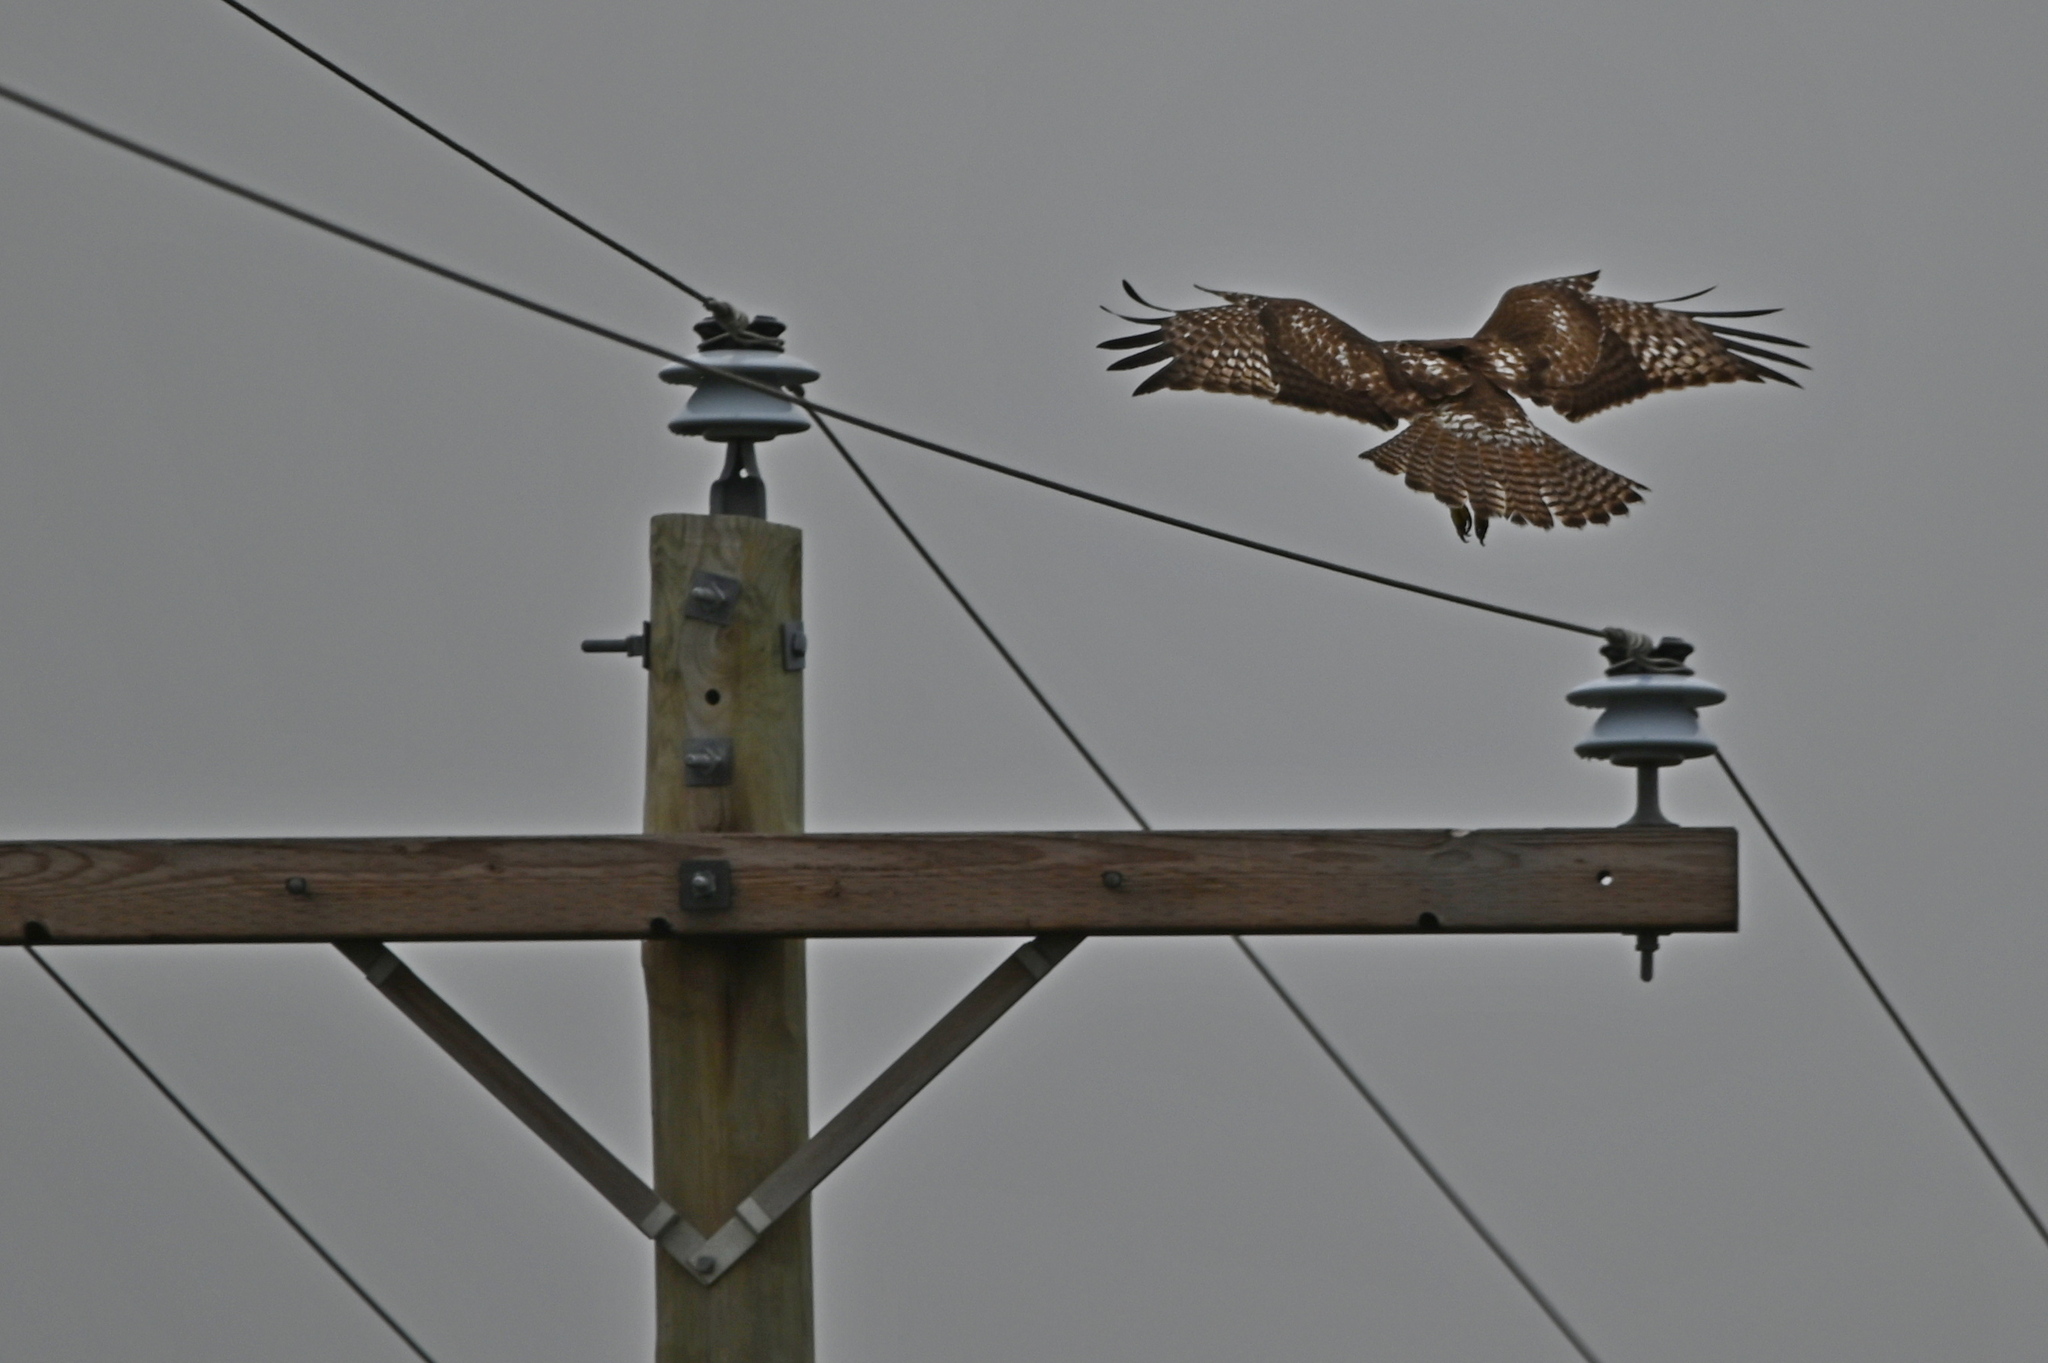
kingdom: Animalia
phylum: Chordata
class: Aves
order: Accipitriformes
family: Accipitridae
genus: Buteo
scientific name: Buteo jamaicensis
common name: Red-tailed hawk
